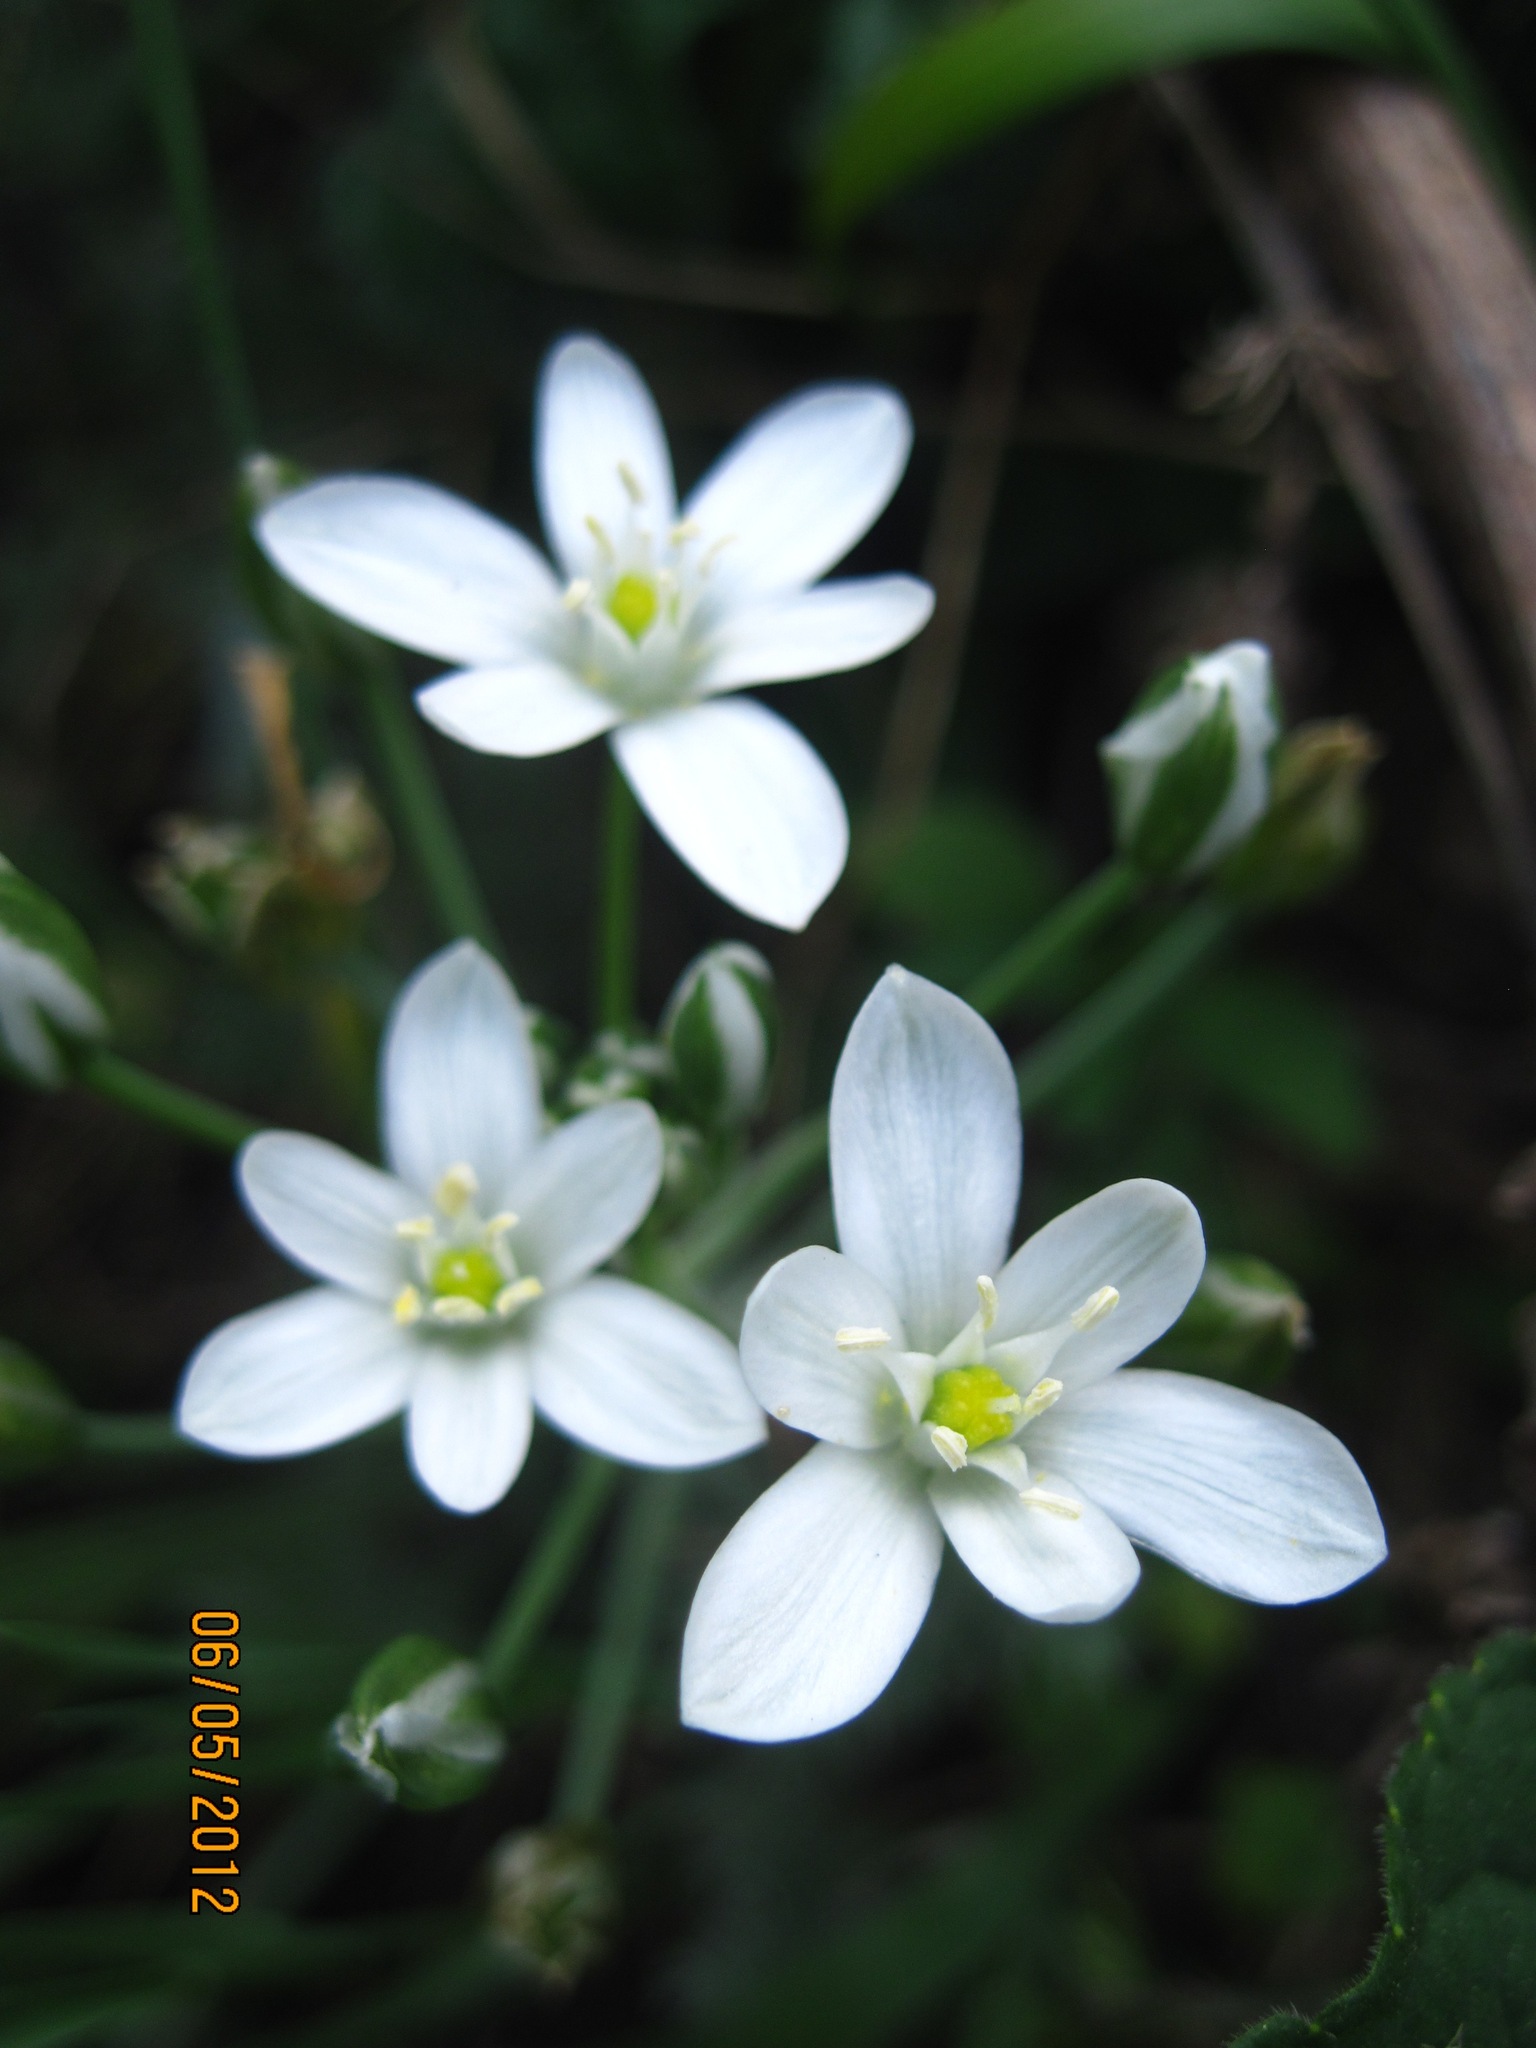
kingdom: Plantae
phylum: Tracheophyta
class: Liliopsida
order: Asparagales
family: Asparagaceae
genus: Ornithogalum
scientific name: Ornithogalum orthophyllum
